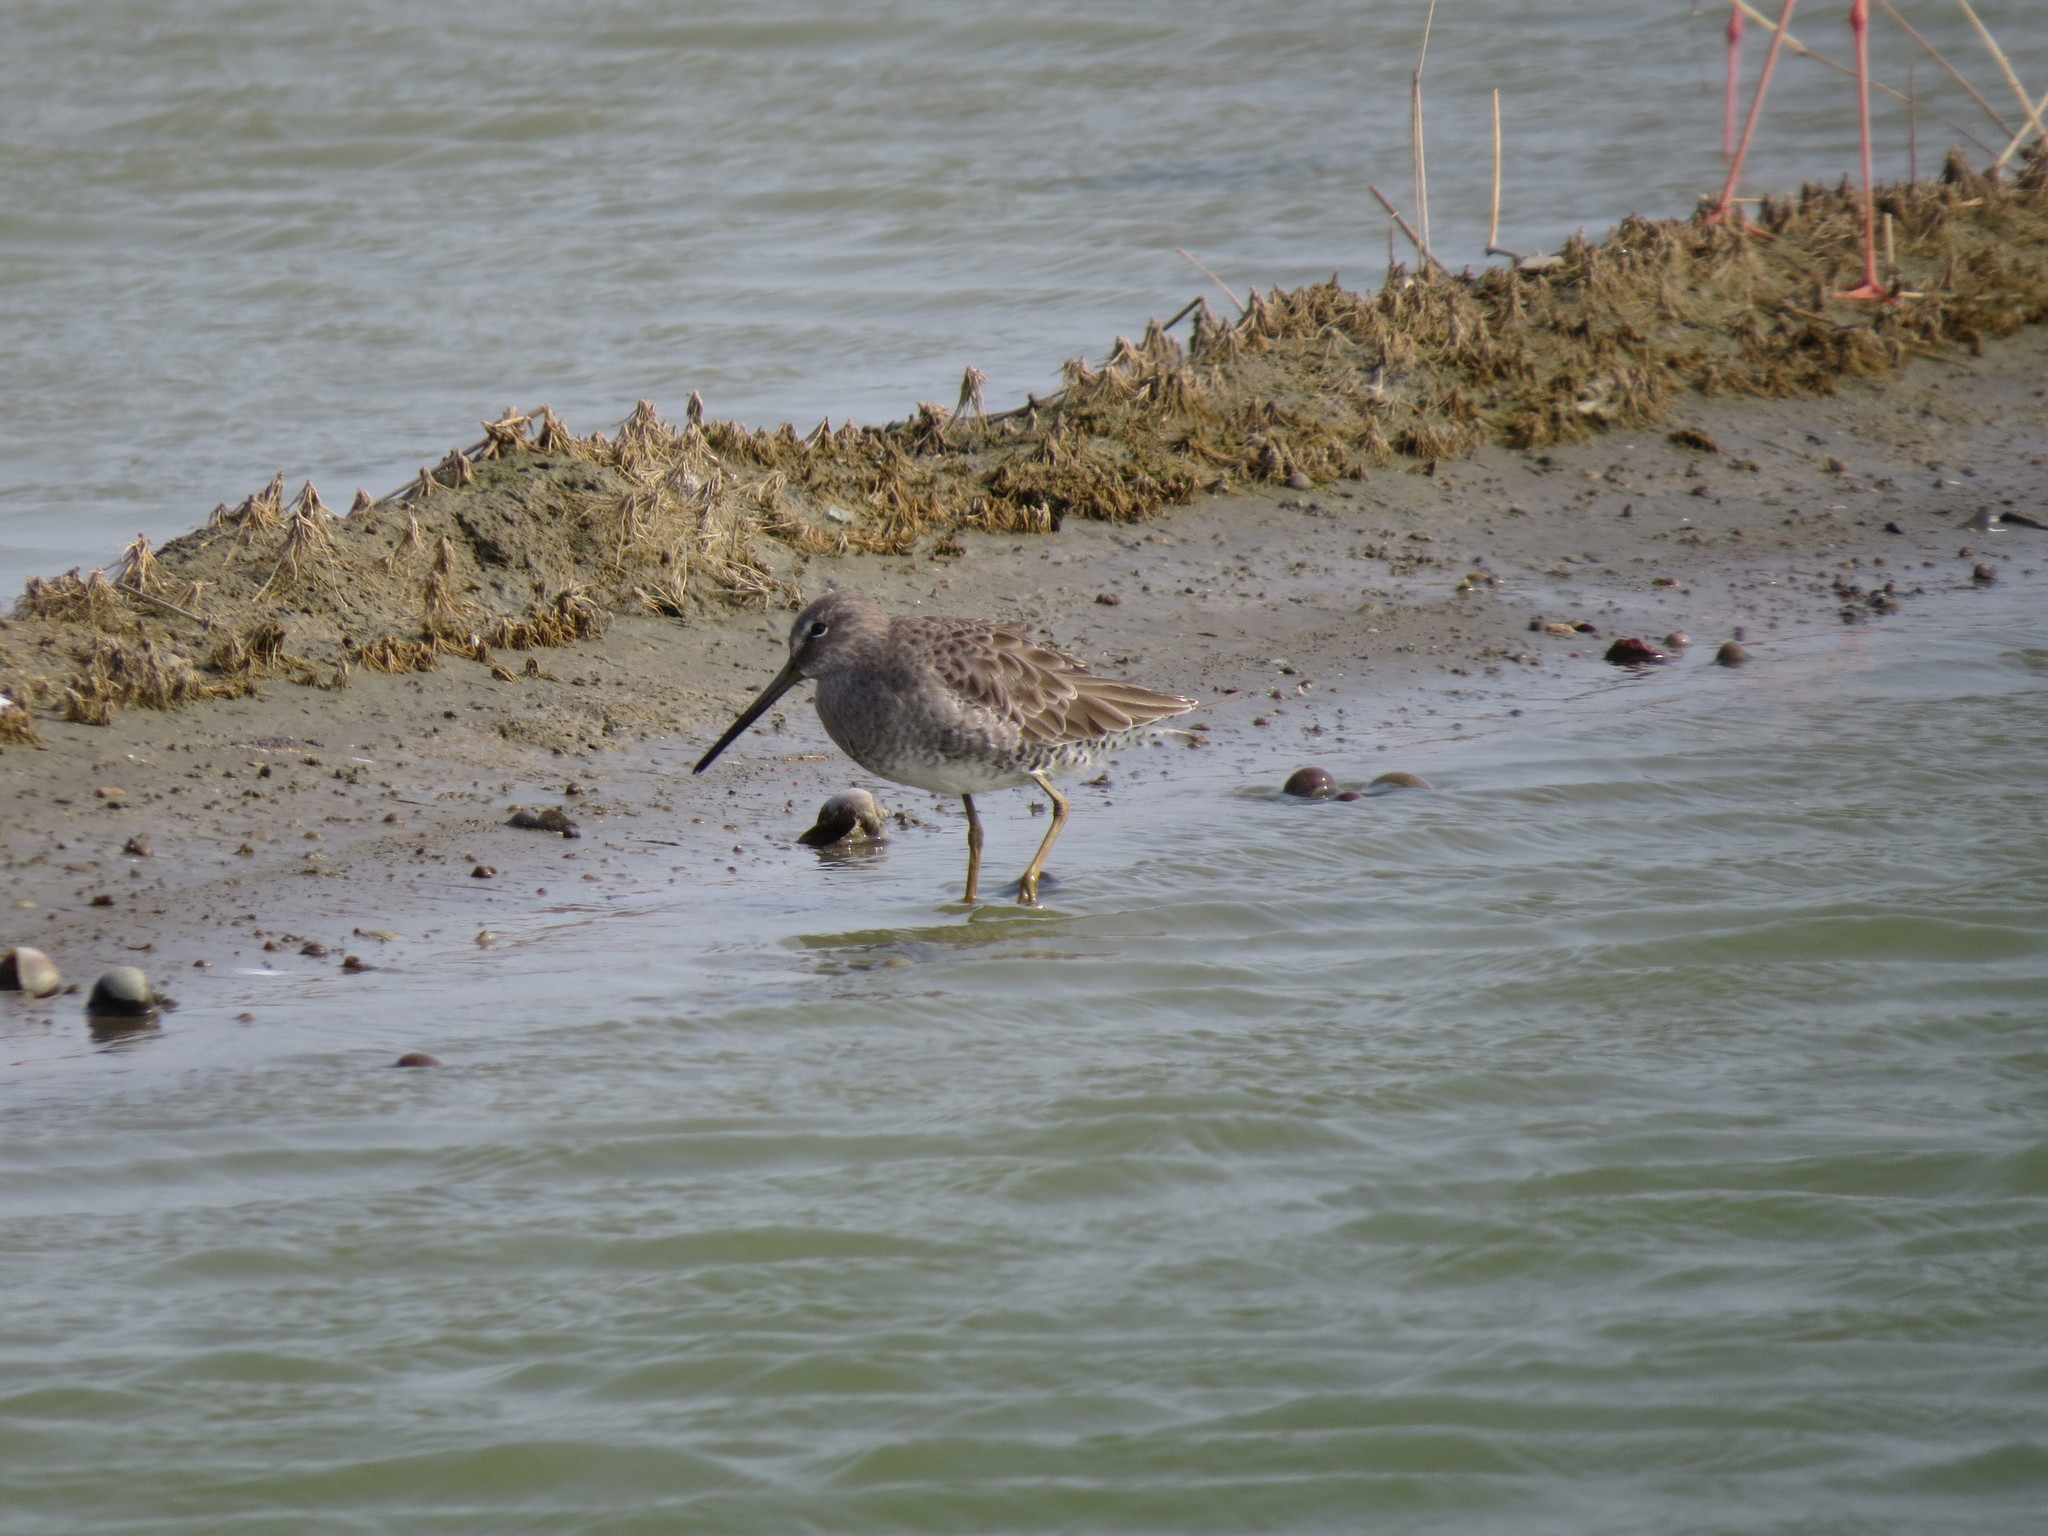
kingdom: Animalia
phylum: Chordata
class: Aves
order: Charadriiformes
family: Scolopacidae
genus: Limnodromus
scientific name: Limnodromus scolopaceus
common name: Long-billed dowitcher
